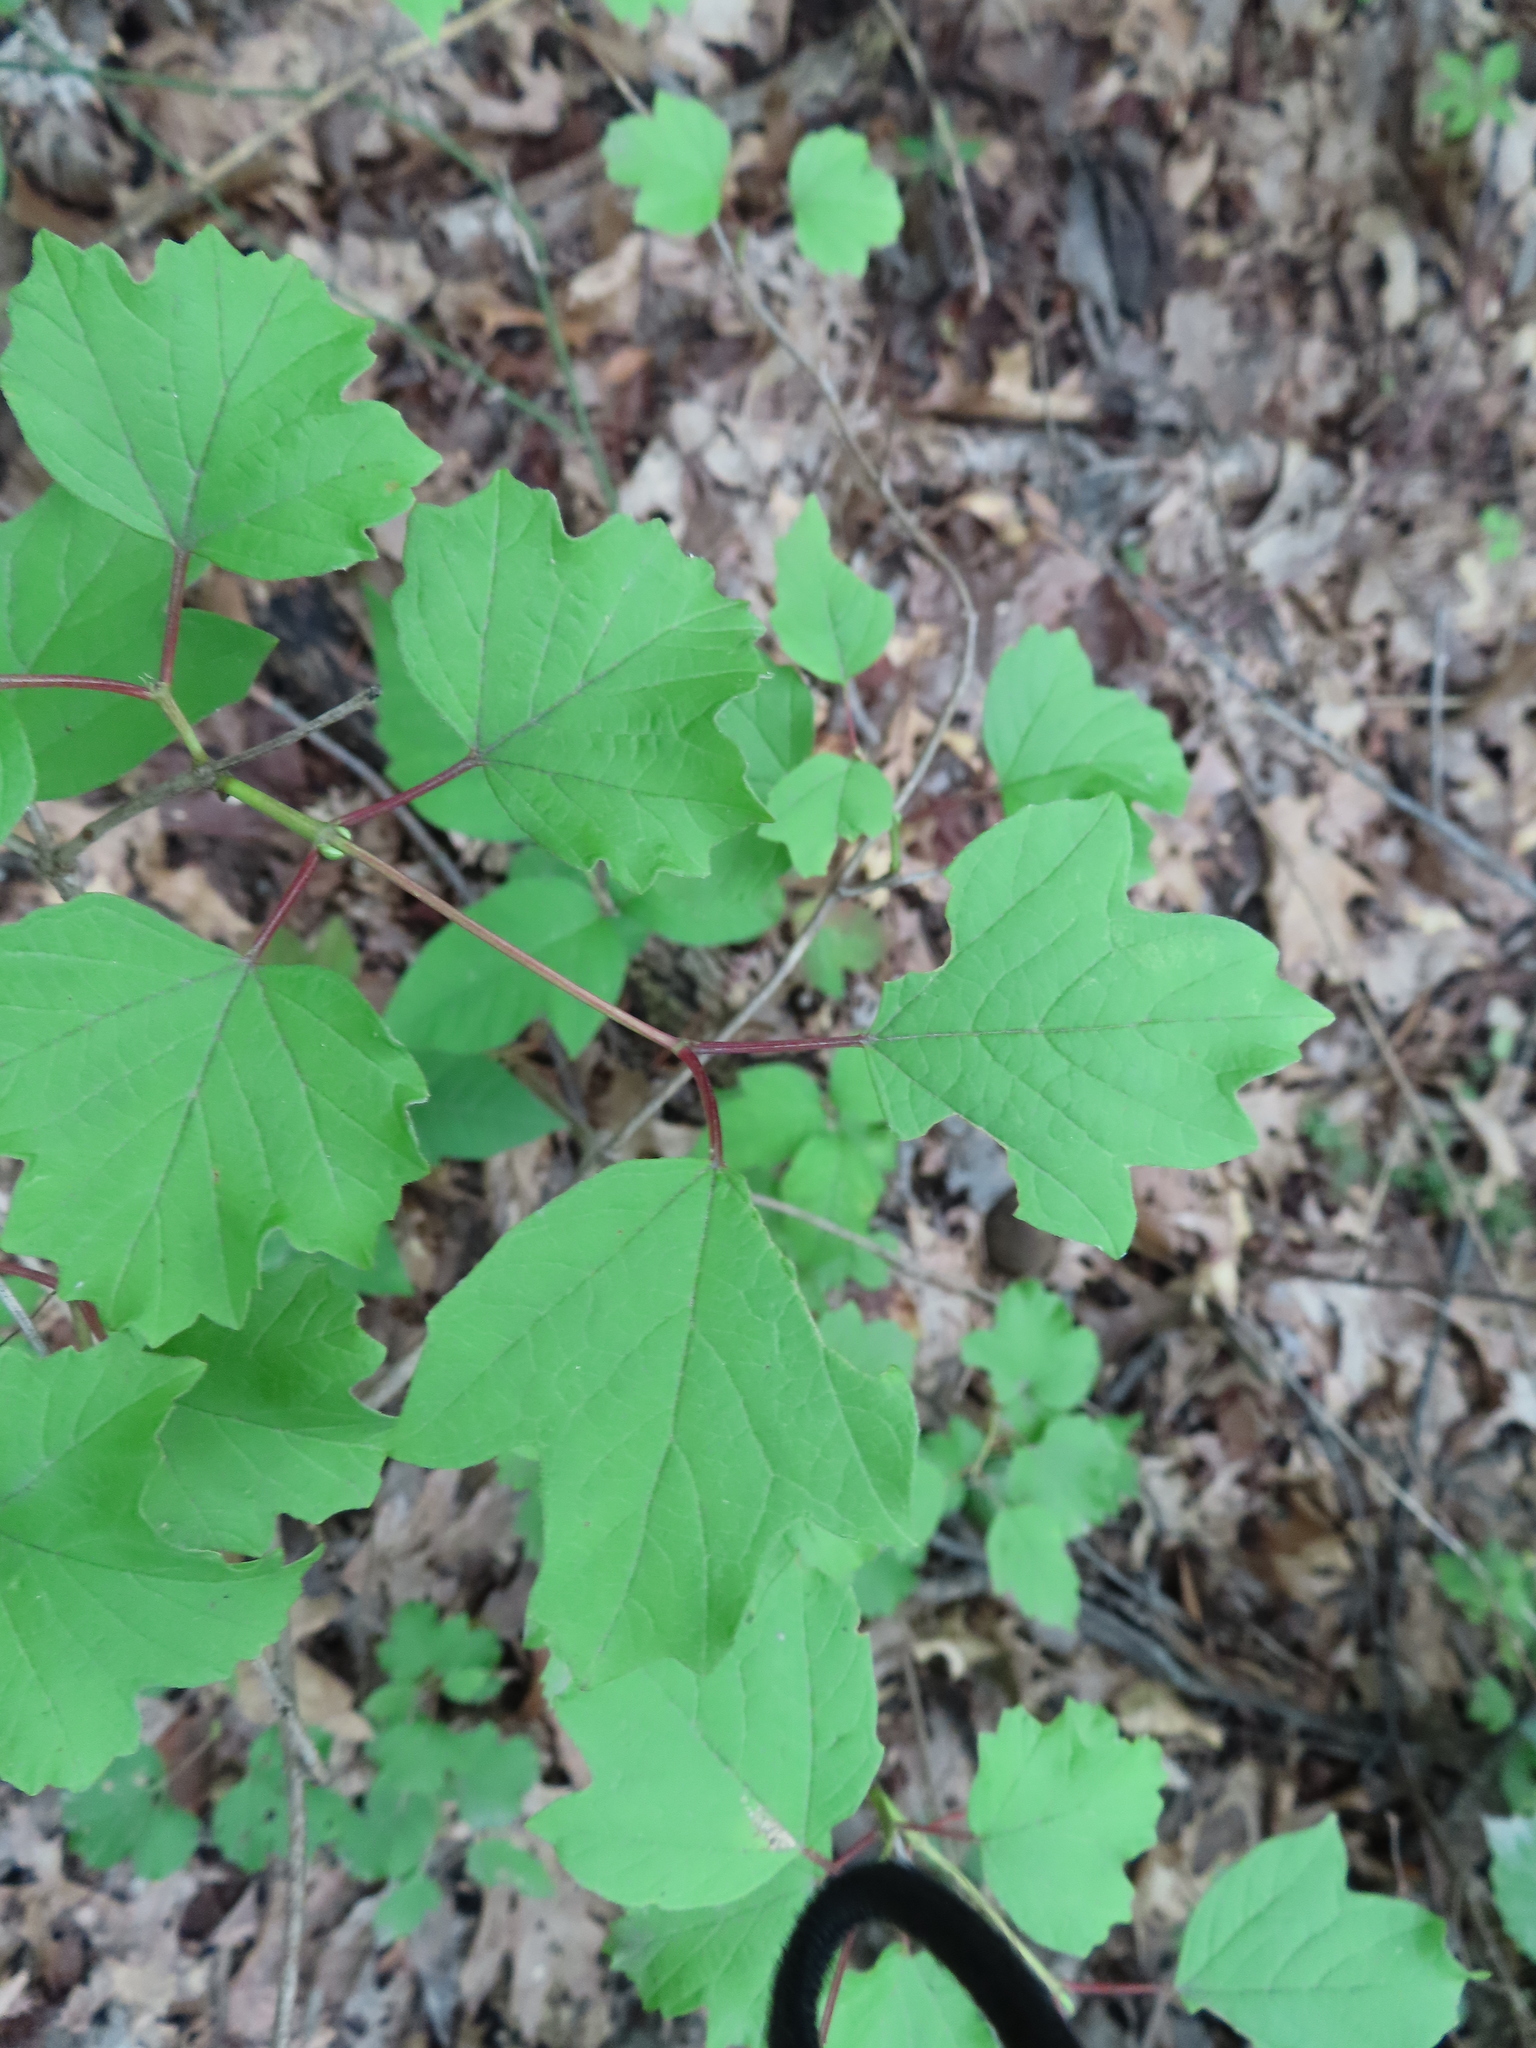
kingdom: Plantae
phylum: Tracheophyta
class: Magnoliopsida
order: Dipsacales
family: Viburnaceae
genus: Viburnum
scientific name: Viburnum opulus
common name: Guelder-rose
